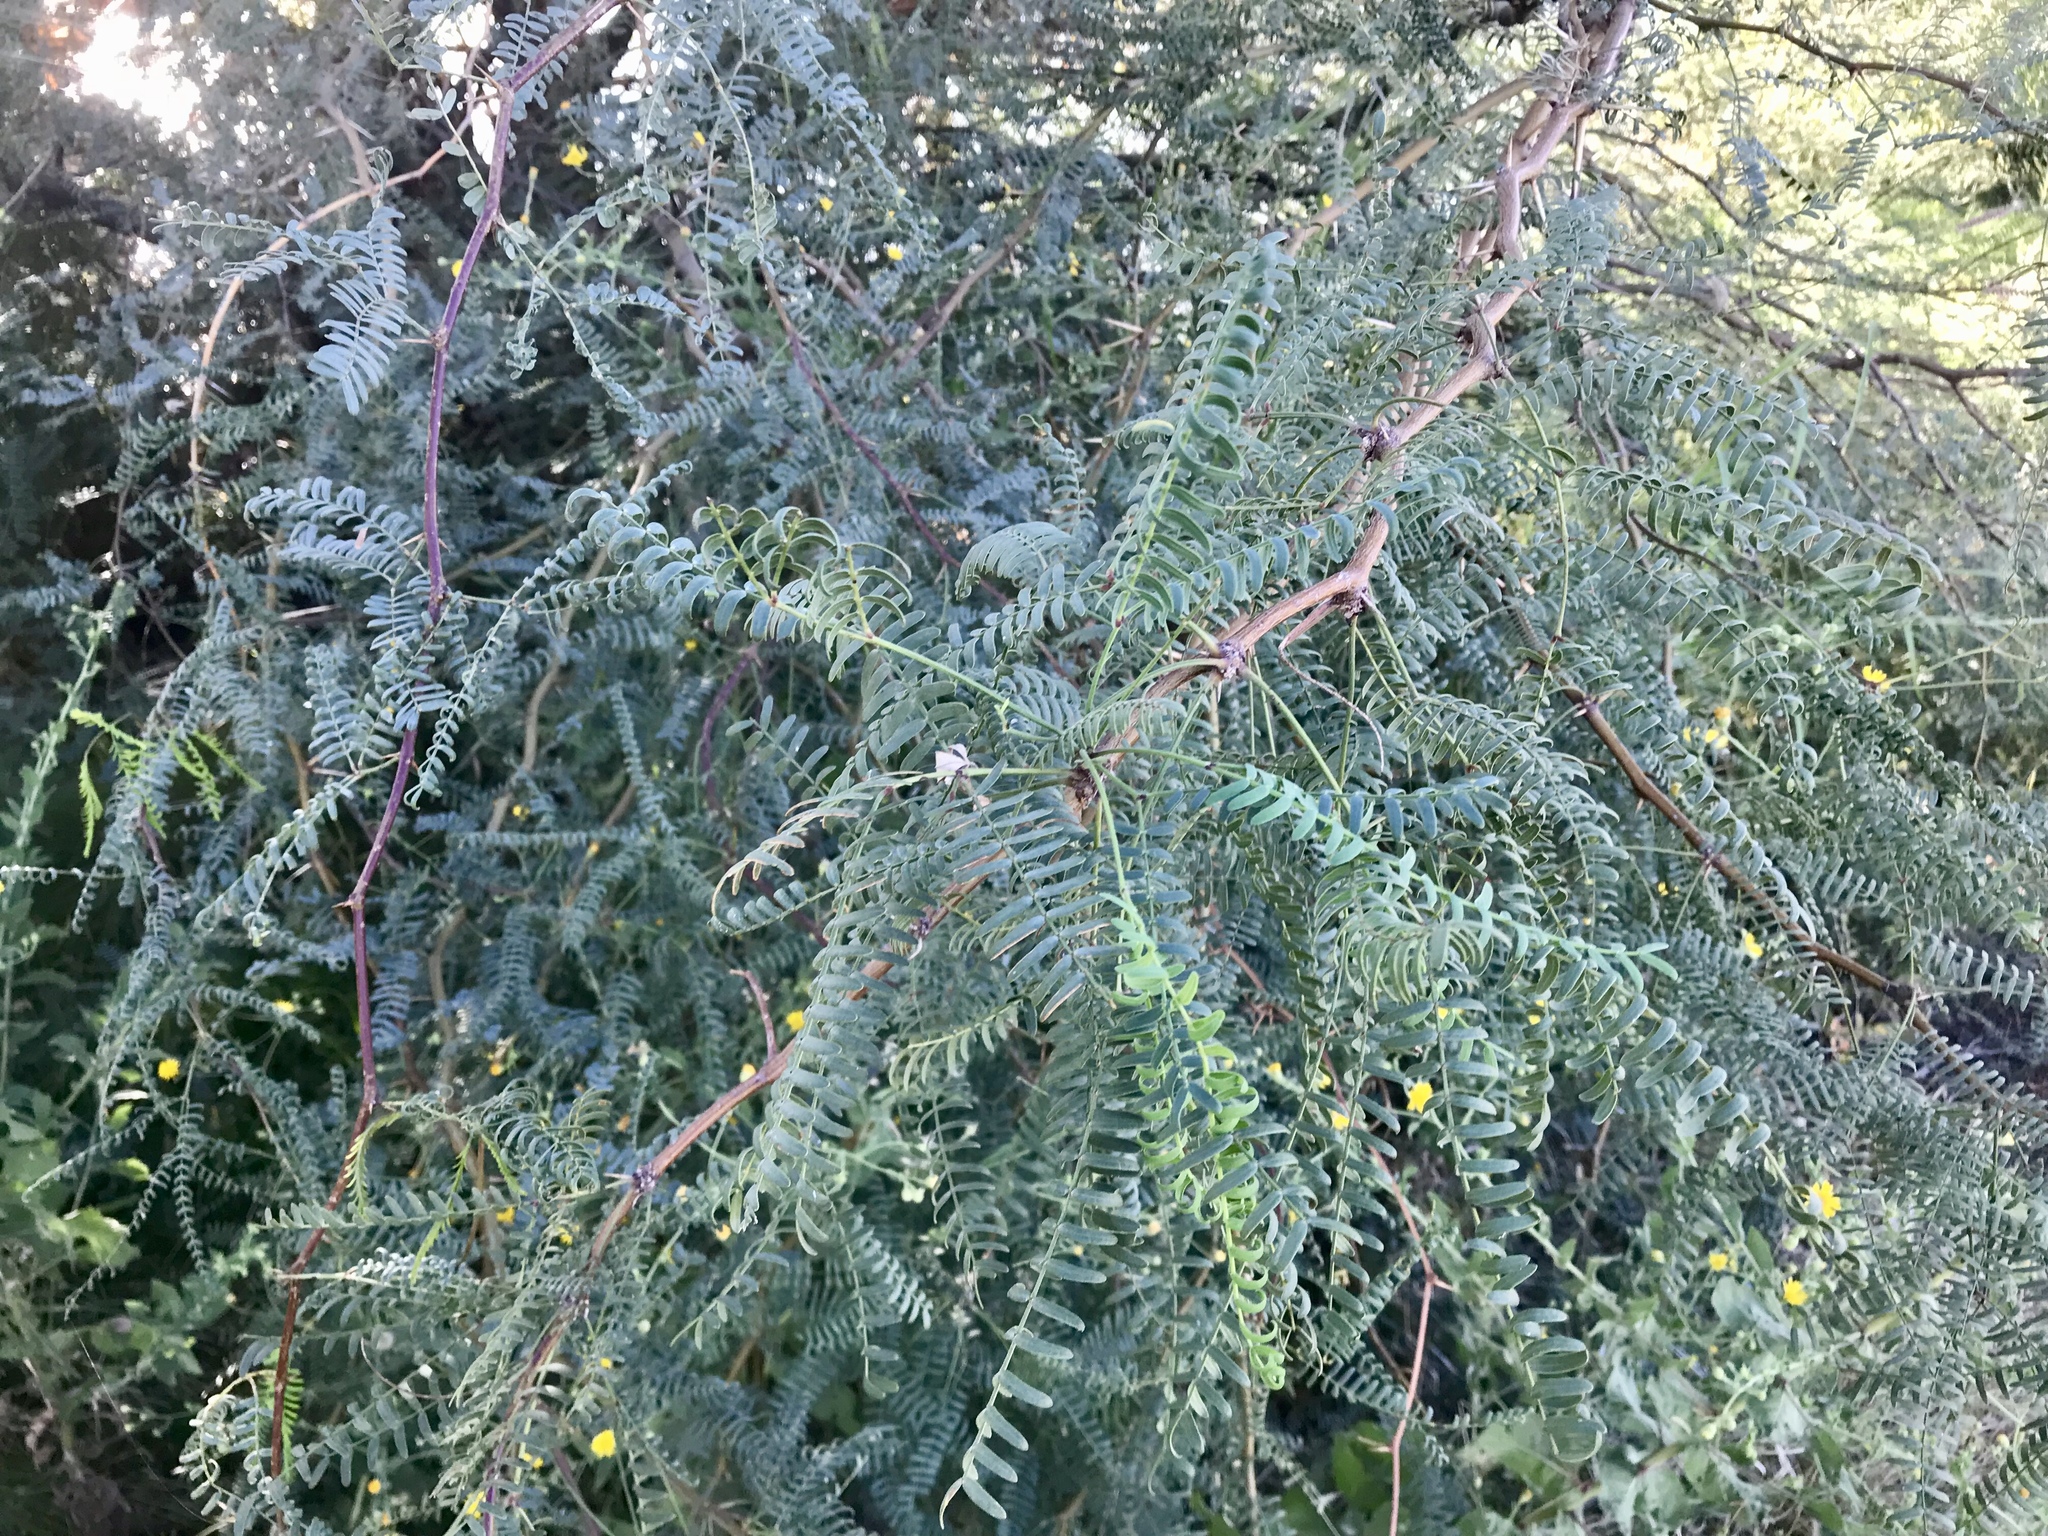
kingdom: Plantae
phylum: Tracheophyta
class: Magnoliopsida
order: Fabales
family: Fabaceae
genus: Prosopis
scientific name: Prosopis glandulosa
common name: Honey mesquite
